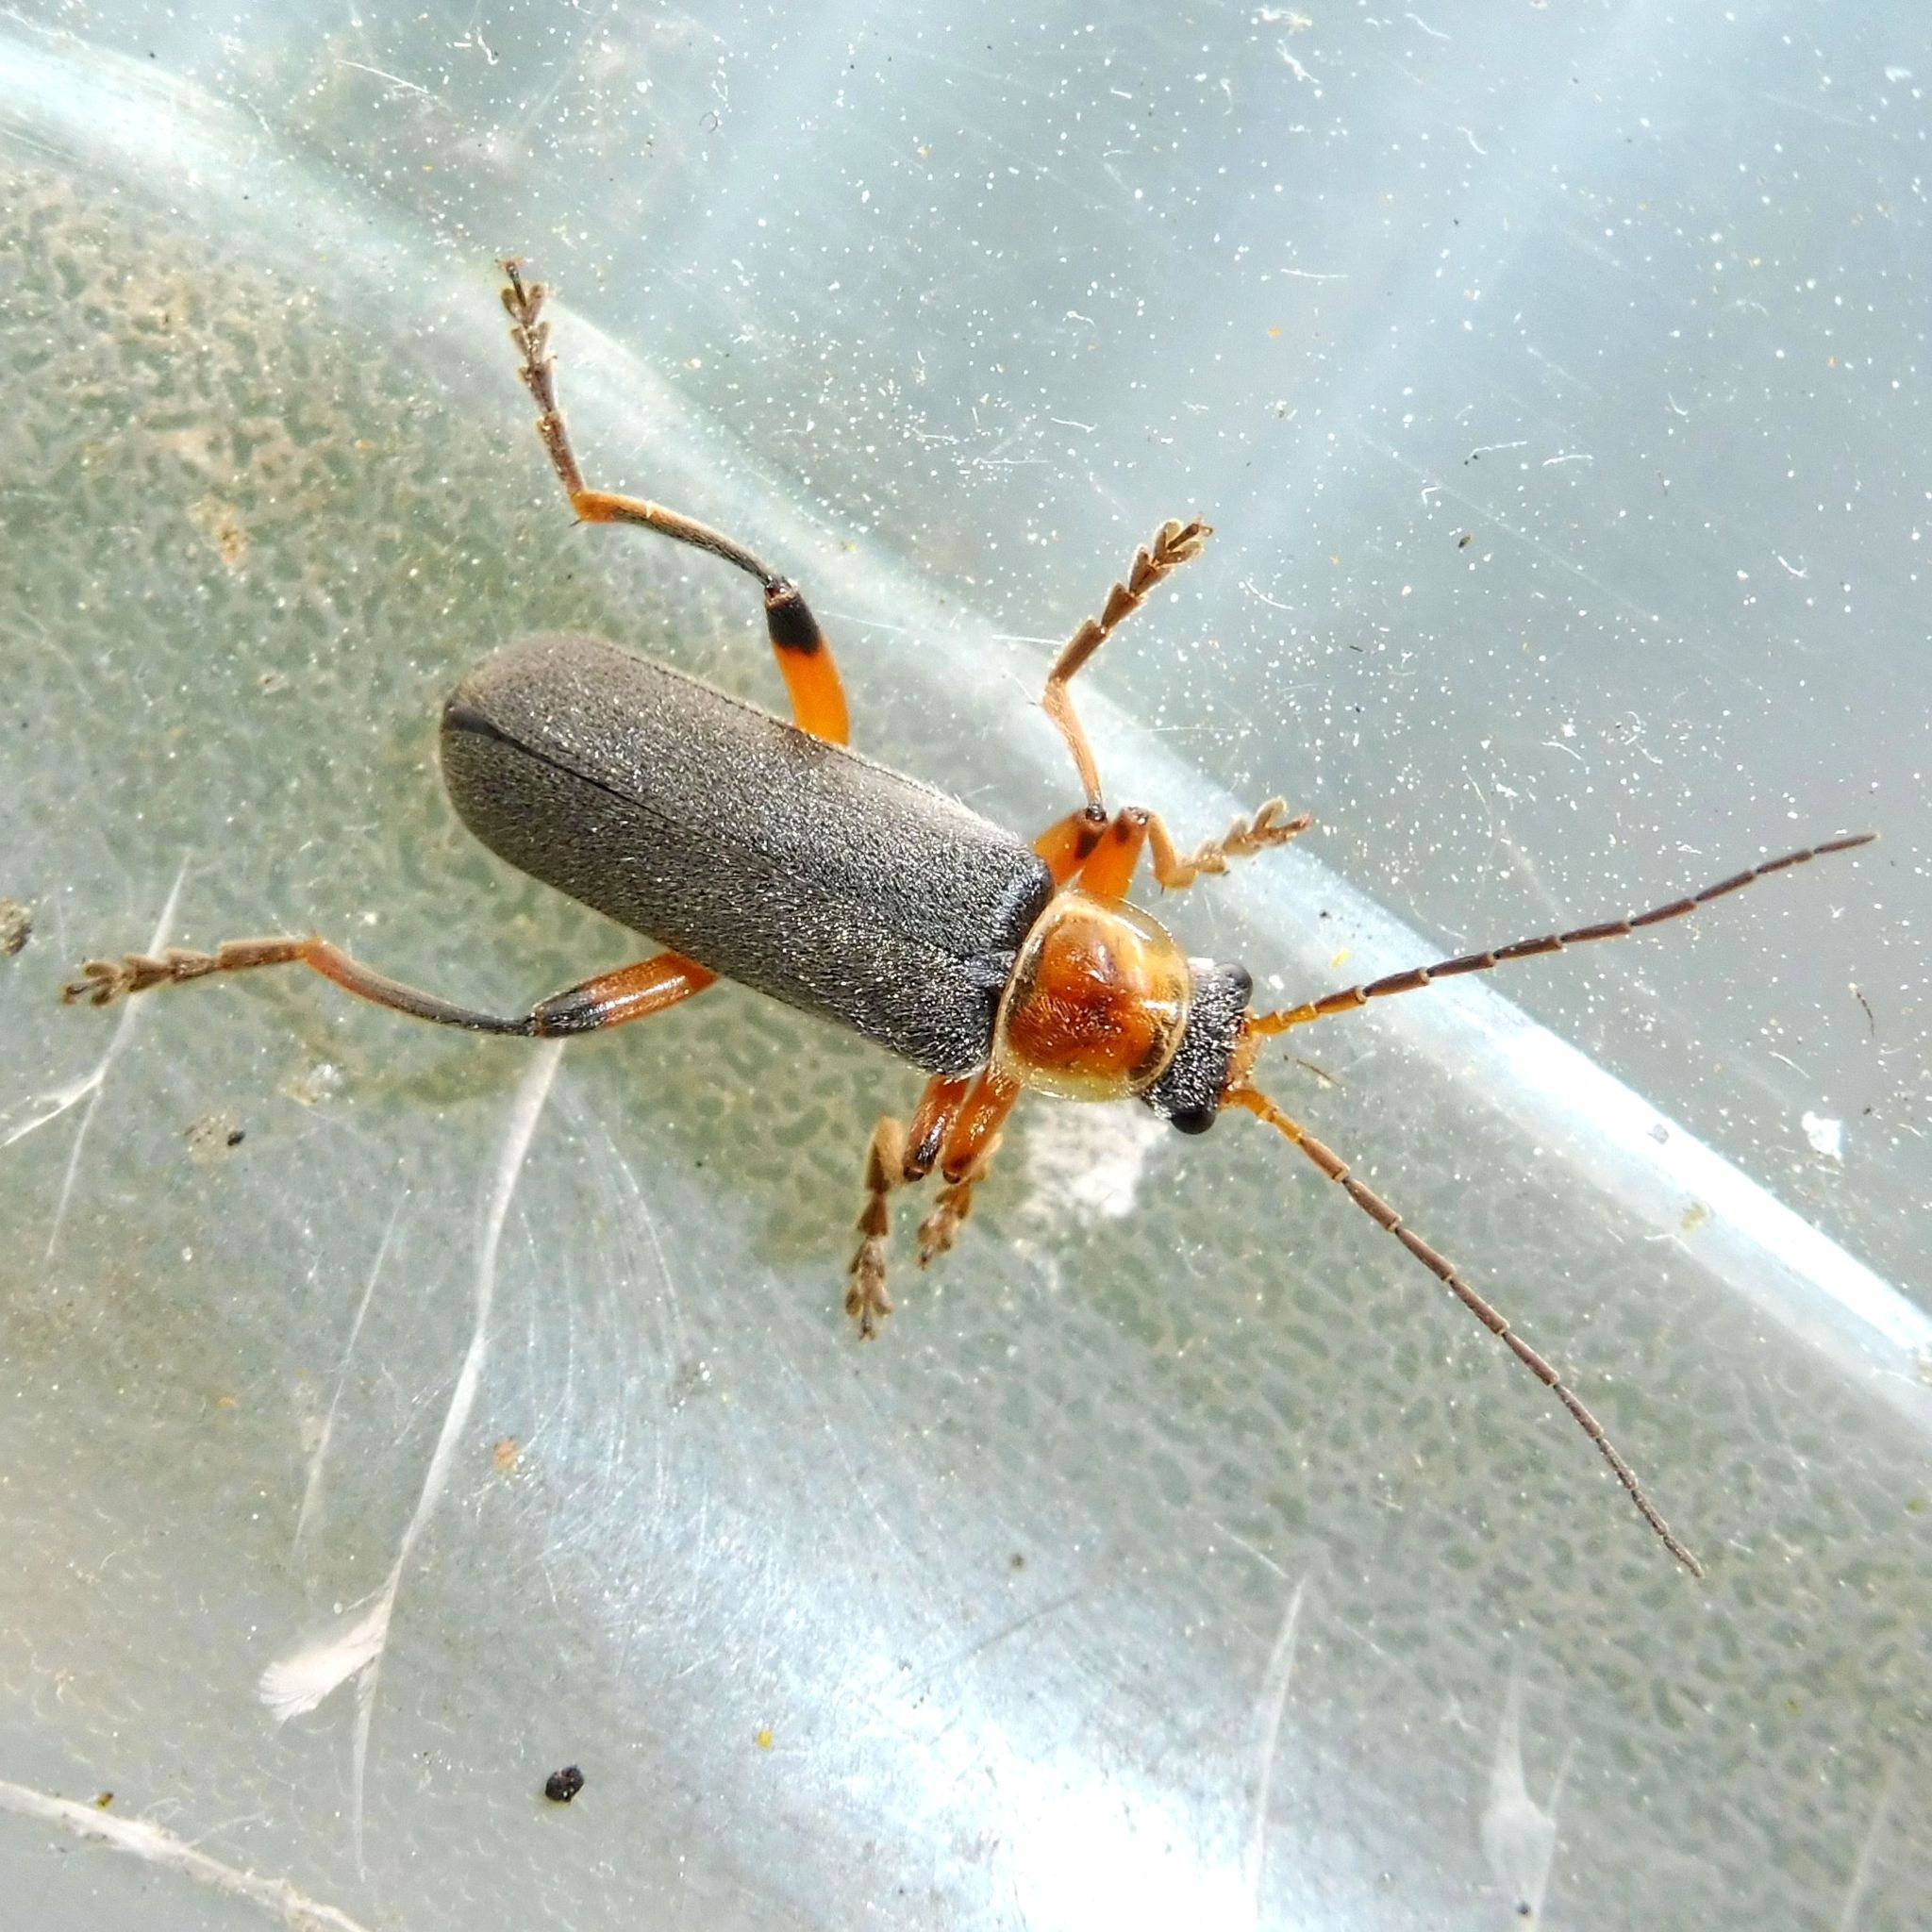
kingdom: Animalia
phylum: Arthropoda
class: Insecta
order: Coleoptera
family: Cantharidae
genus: Cantharis
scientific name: Cantharis nigricans
